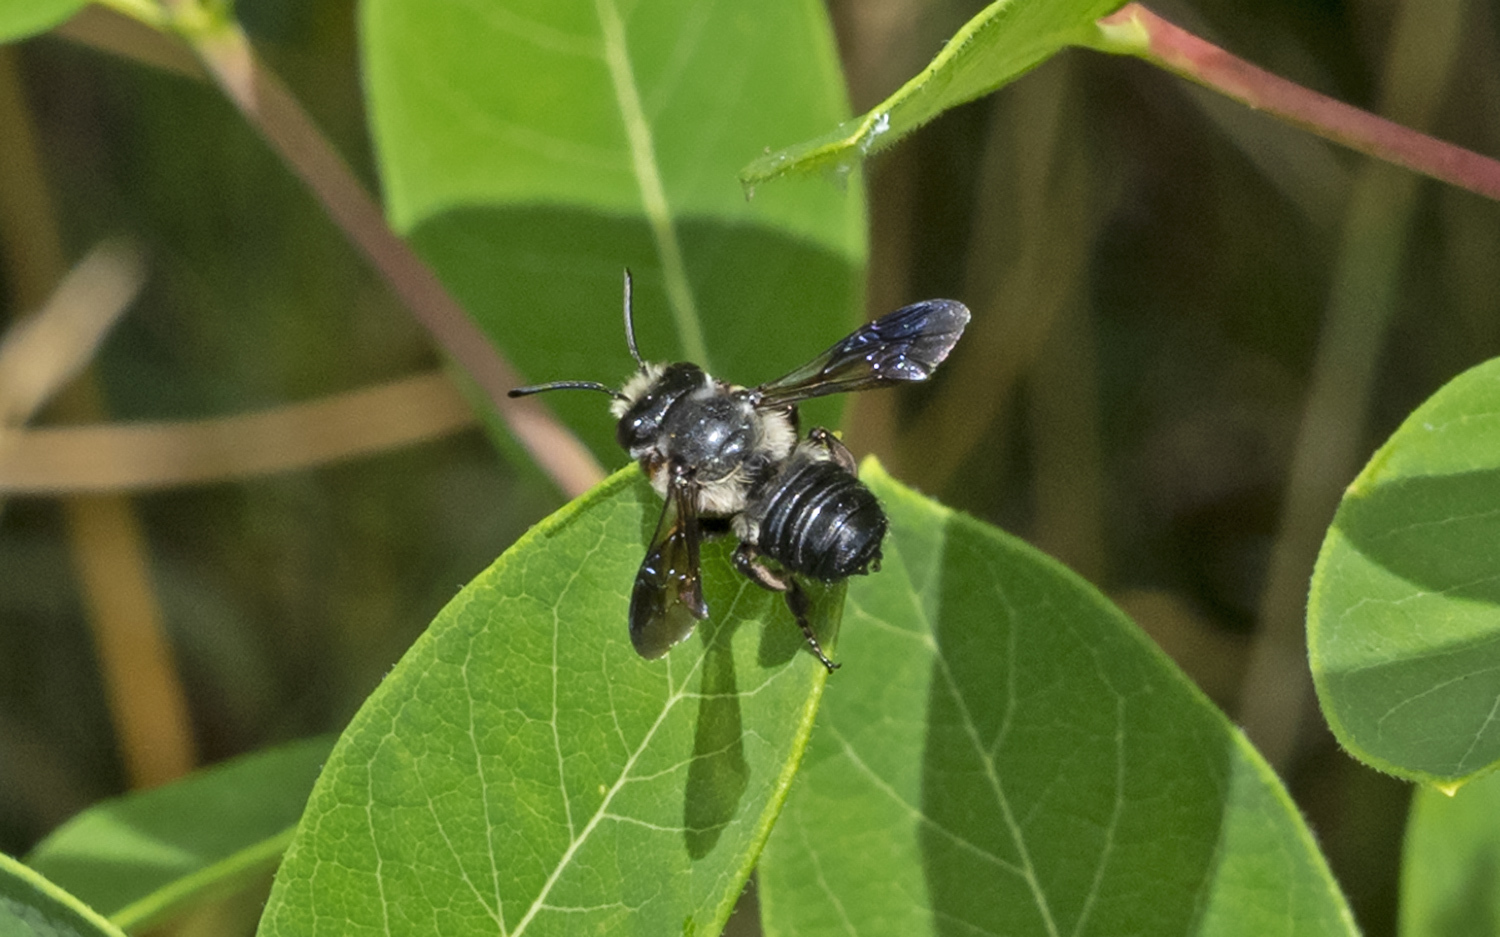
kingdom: Animalia
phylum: Arthropoda
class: Insecta
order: Hymenoptera
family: Megachilidae
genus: Megachile
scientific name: Megachile xylocopoides
